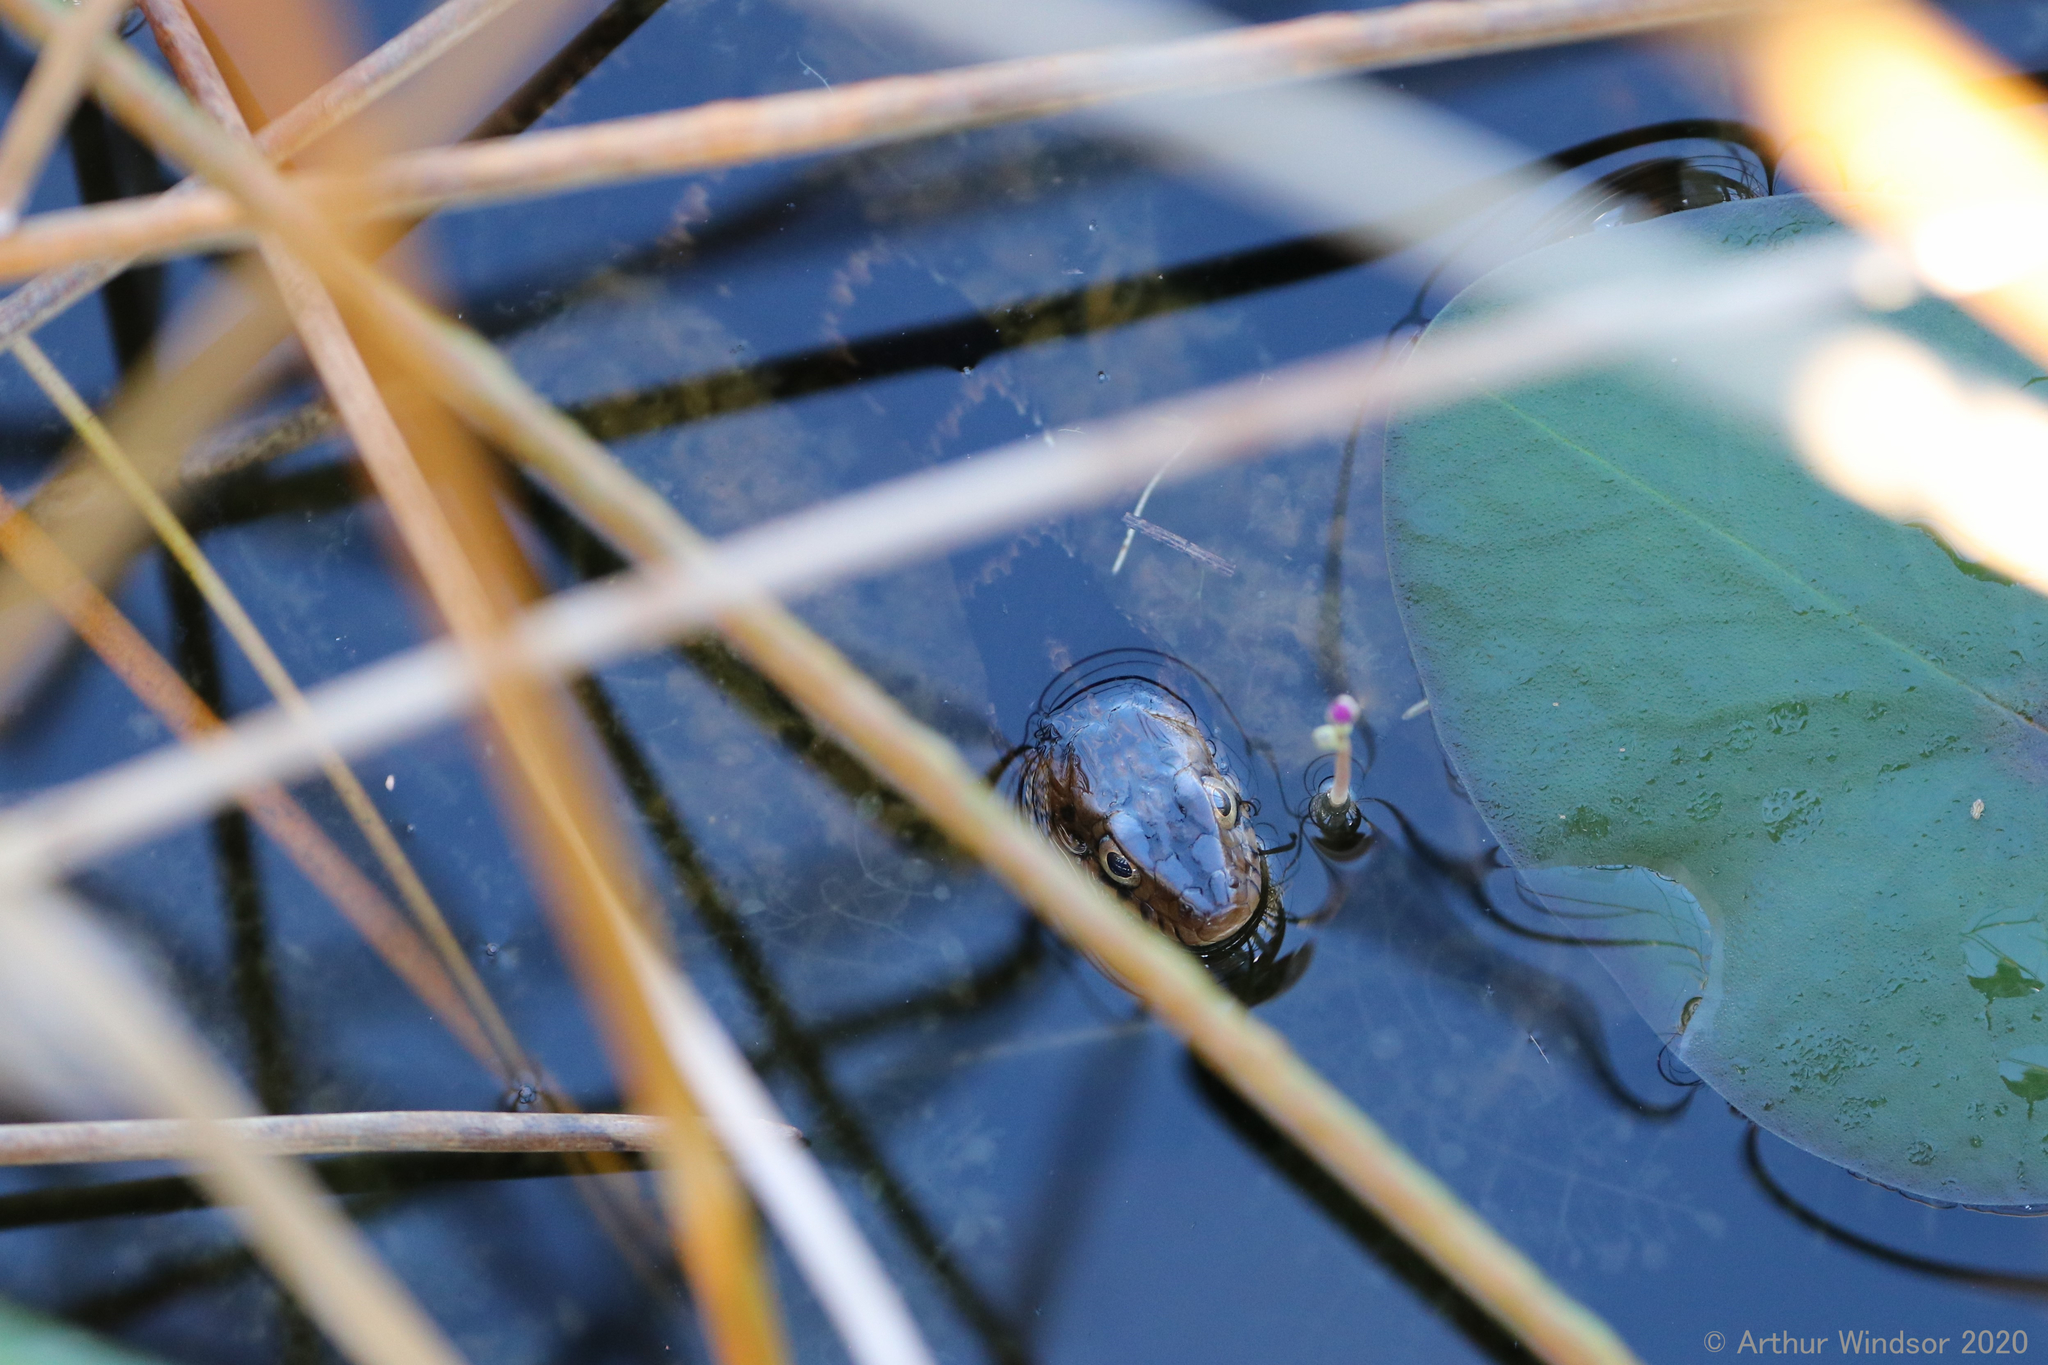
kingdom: Animalia
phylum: Chordata
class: Squamata
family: Colubridae
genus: Nerodia
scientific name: Nerodia fasciata
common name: Southern water snake
